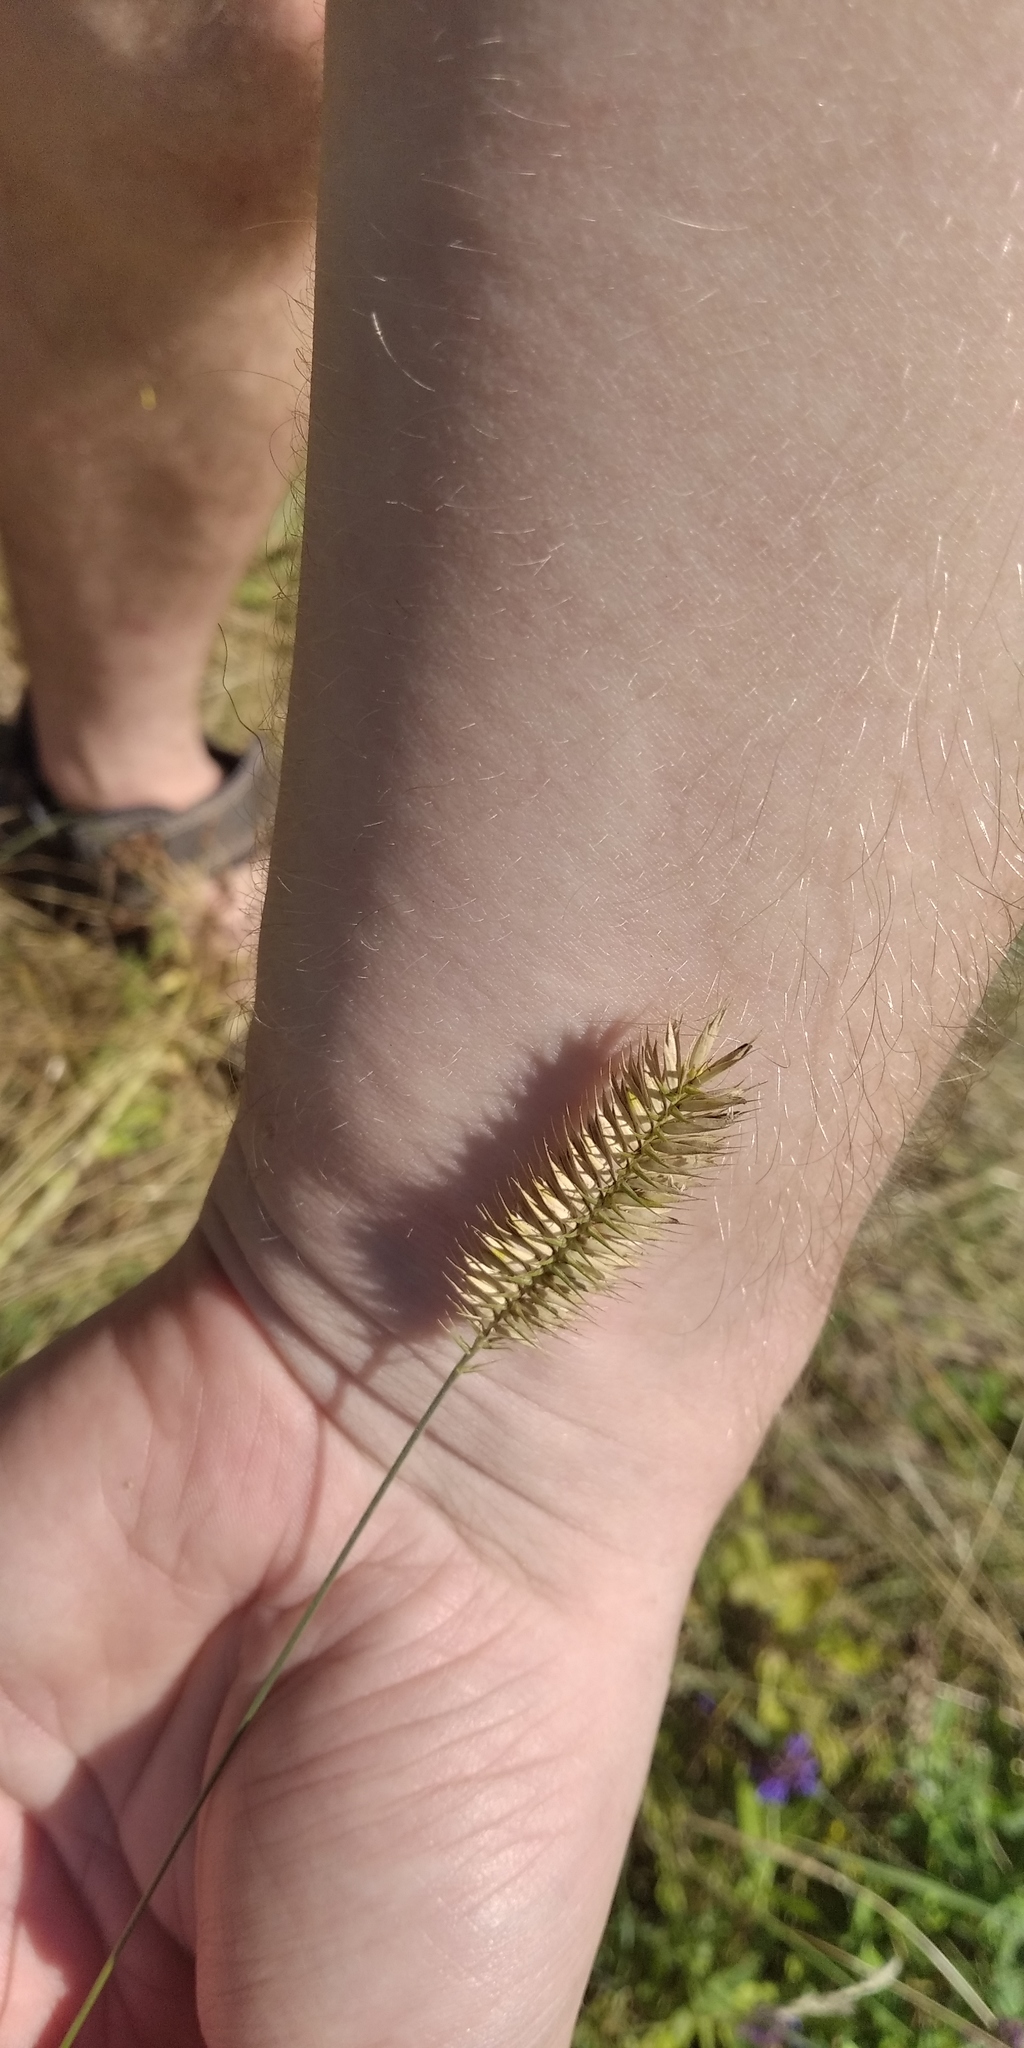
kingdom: Plantae
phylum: Tracheophyta
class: Liliopsida
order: Poales
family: Poaceae
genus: Agropyron
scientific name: Agropyron cristatum
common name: Crested wheatgrass
